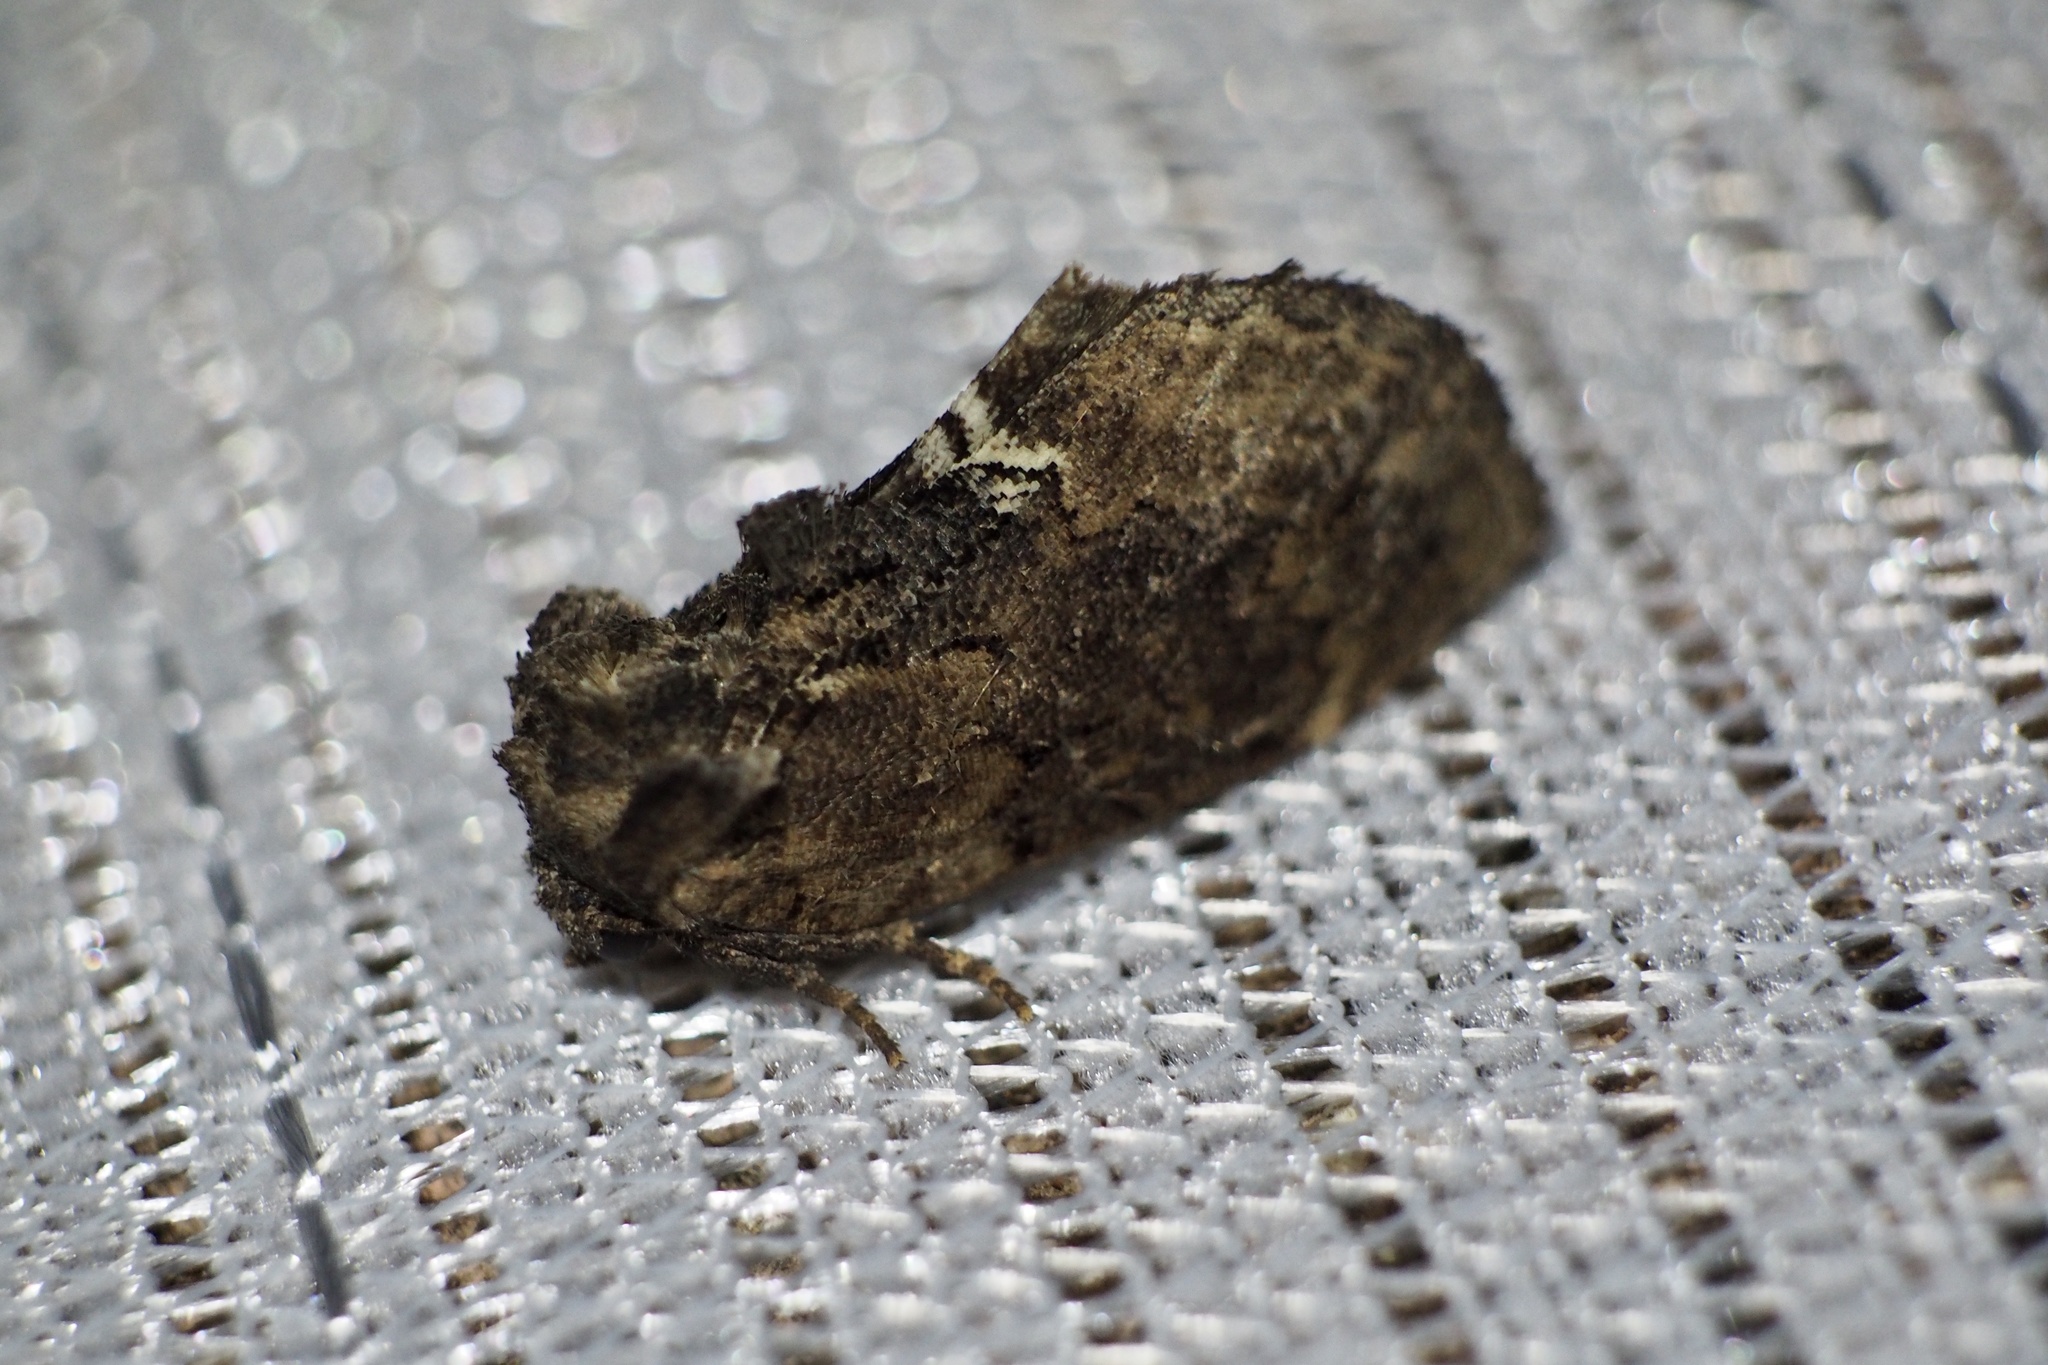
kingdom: Animalia
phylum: Arthropoda
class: Insecta
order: Lepidoptera
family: Notodontidae
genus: Lophontosia
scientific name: Lophontosia
